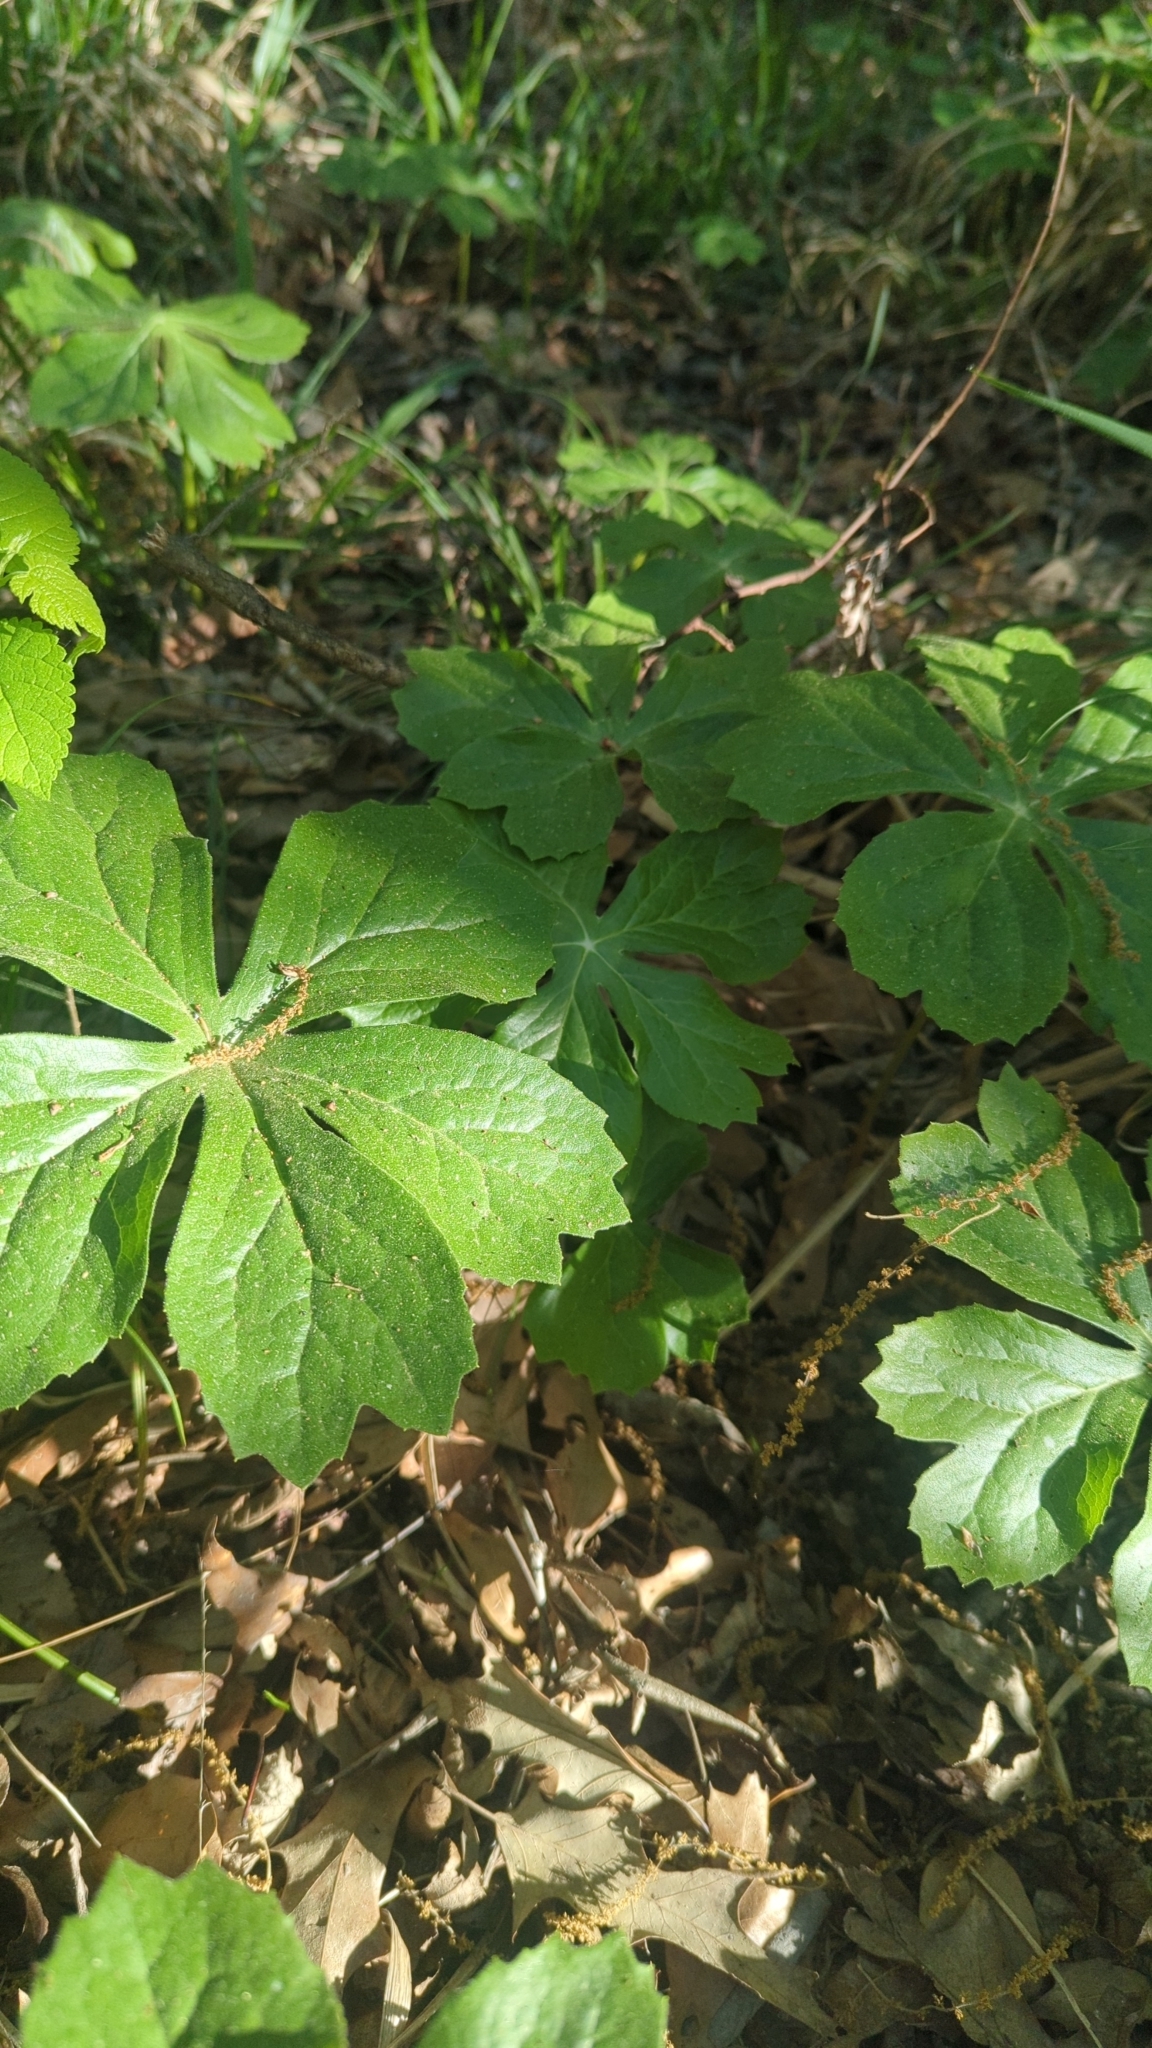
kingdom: Plantae
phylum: Tracheophyta
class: Magnoliopsida
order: Ranunculales
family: Berberidaceae
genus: Podophyllum
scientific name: Podophyllum peltatum
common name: Wild mandrake
